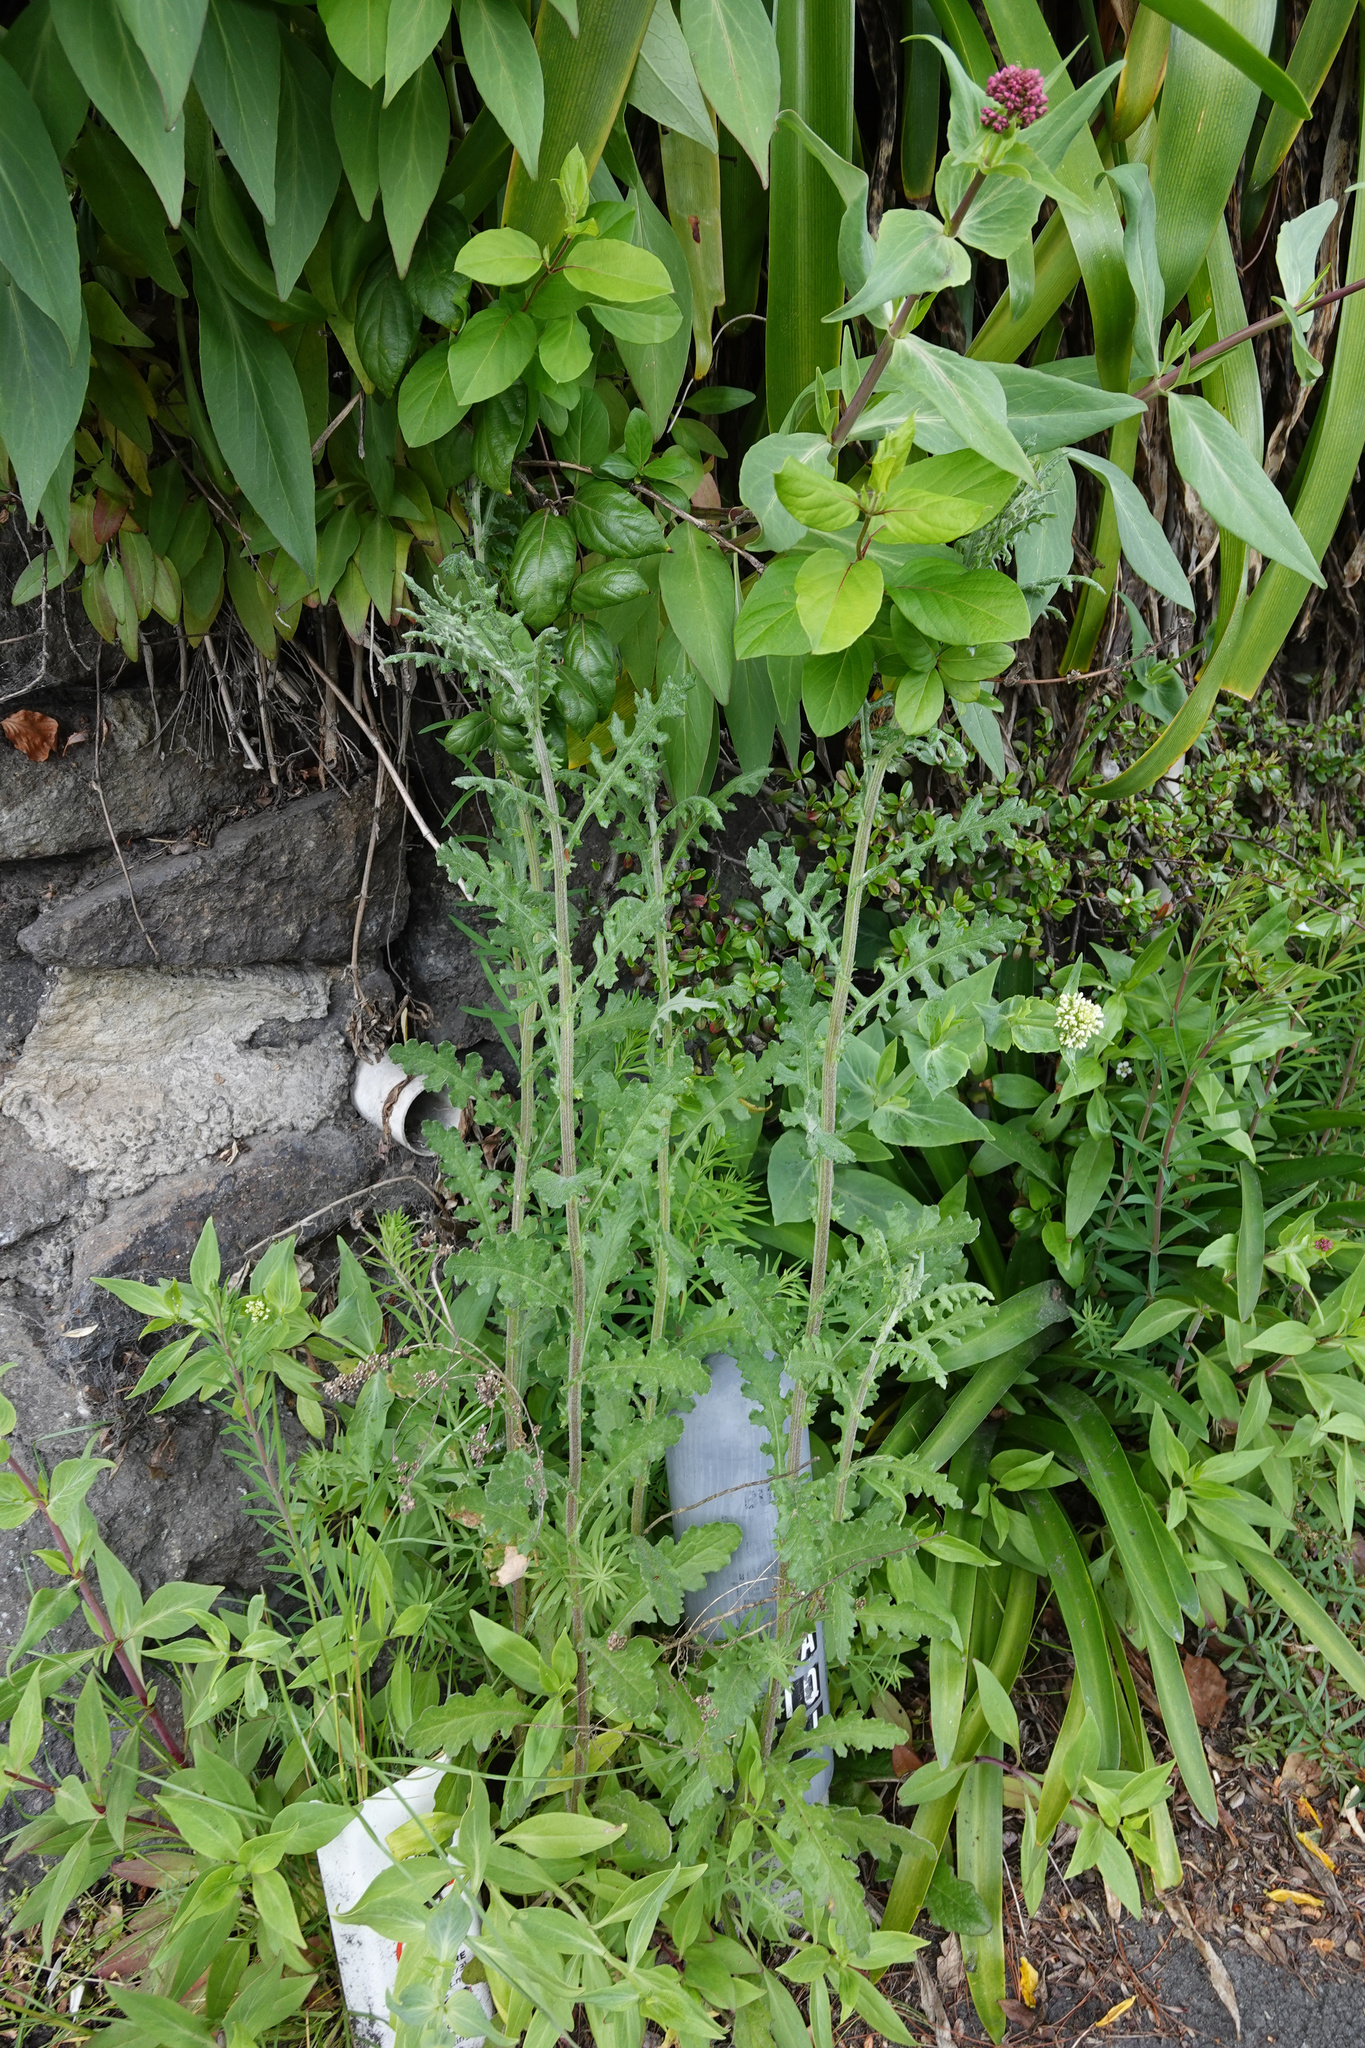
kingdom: Plantae
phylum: Tracheophyta
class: Magnoliopsida
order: Asterales
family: Asteraceae
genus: Senecio
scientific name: Senecio glomeratus
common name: Cutleaf burnweed
